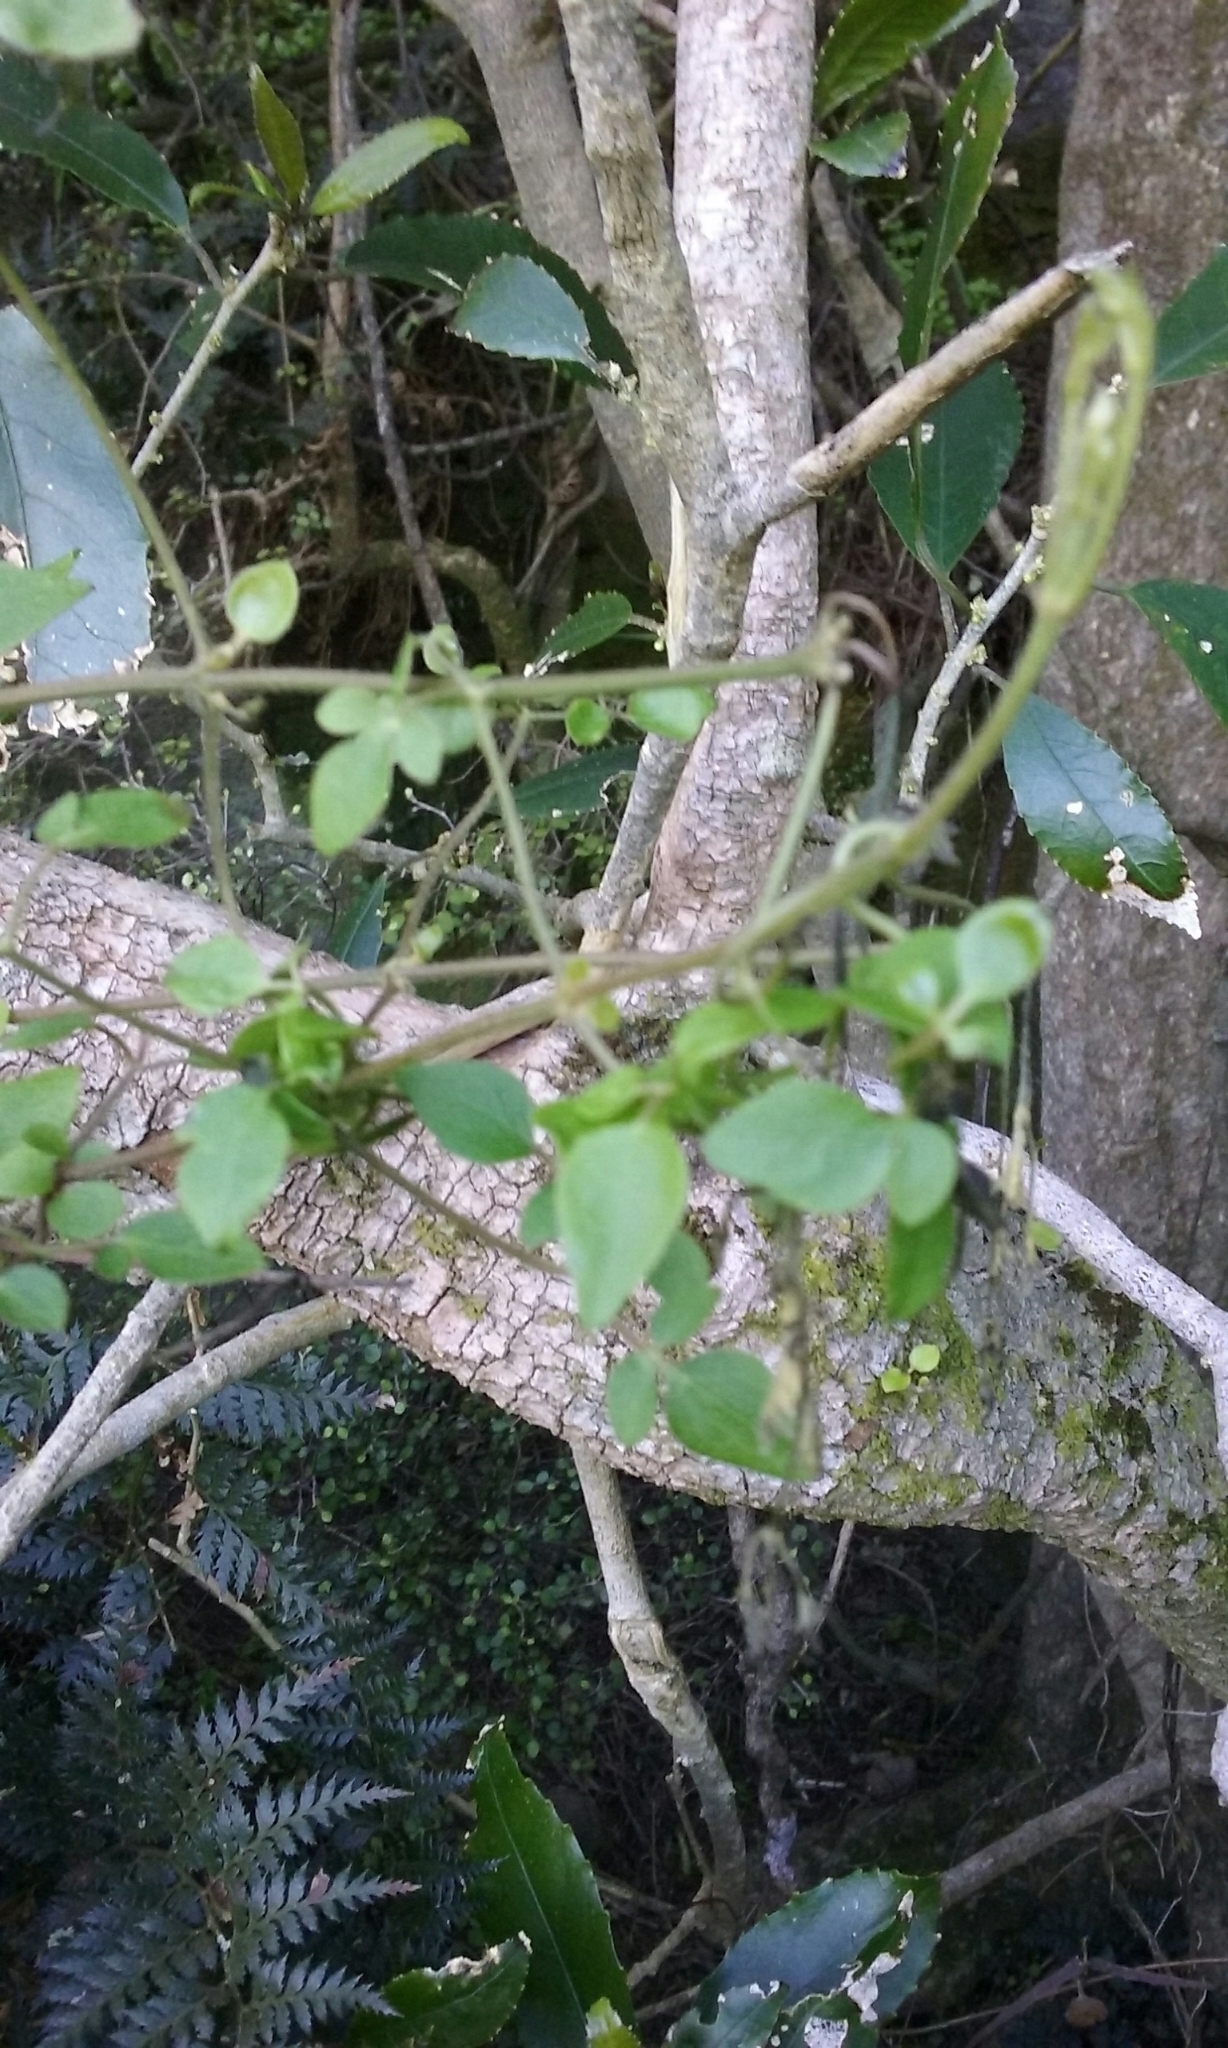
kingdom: Plantae
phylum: Tracheophyta
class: Magnoliopsida
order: Ranunculales
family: Ranunculaceae
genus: Clematis
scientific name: Clematis foetida
